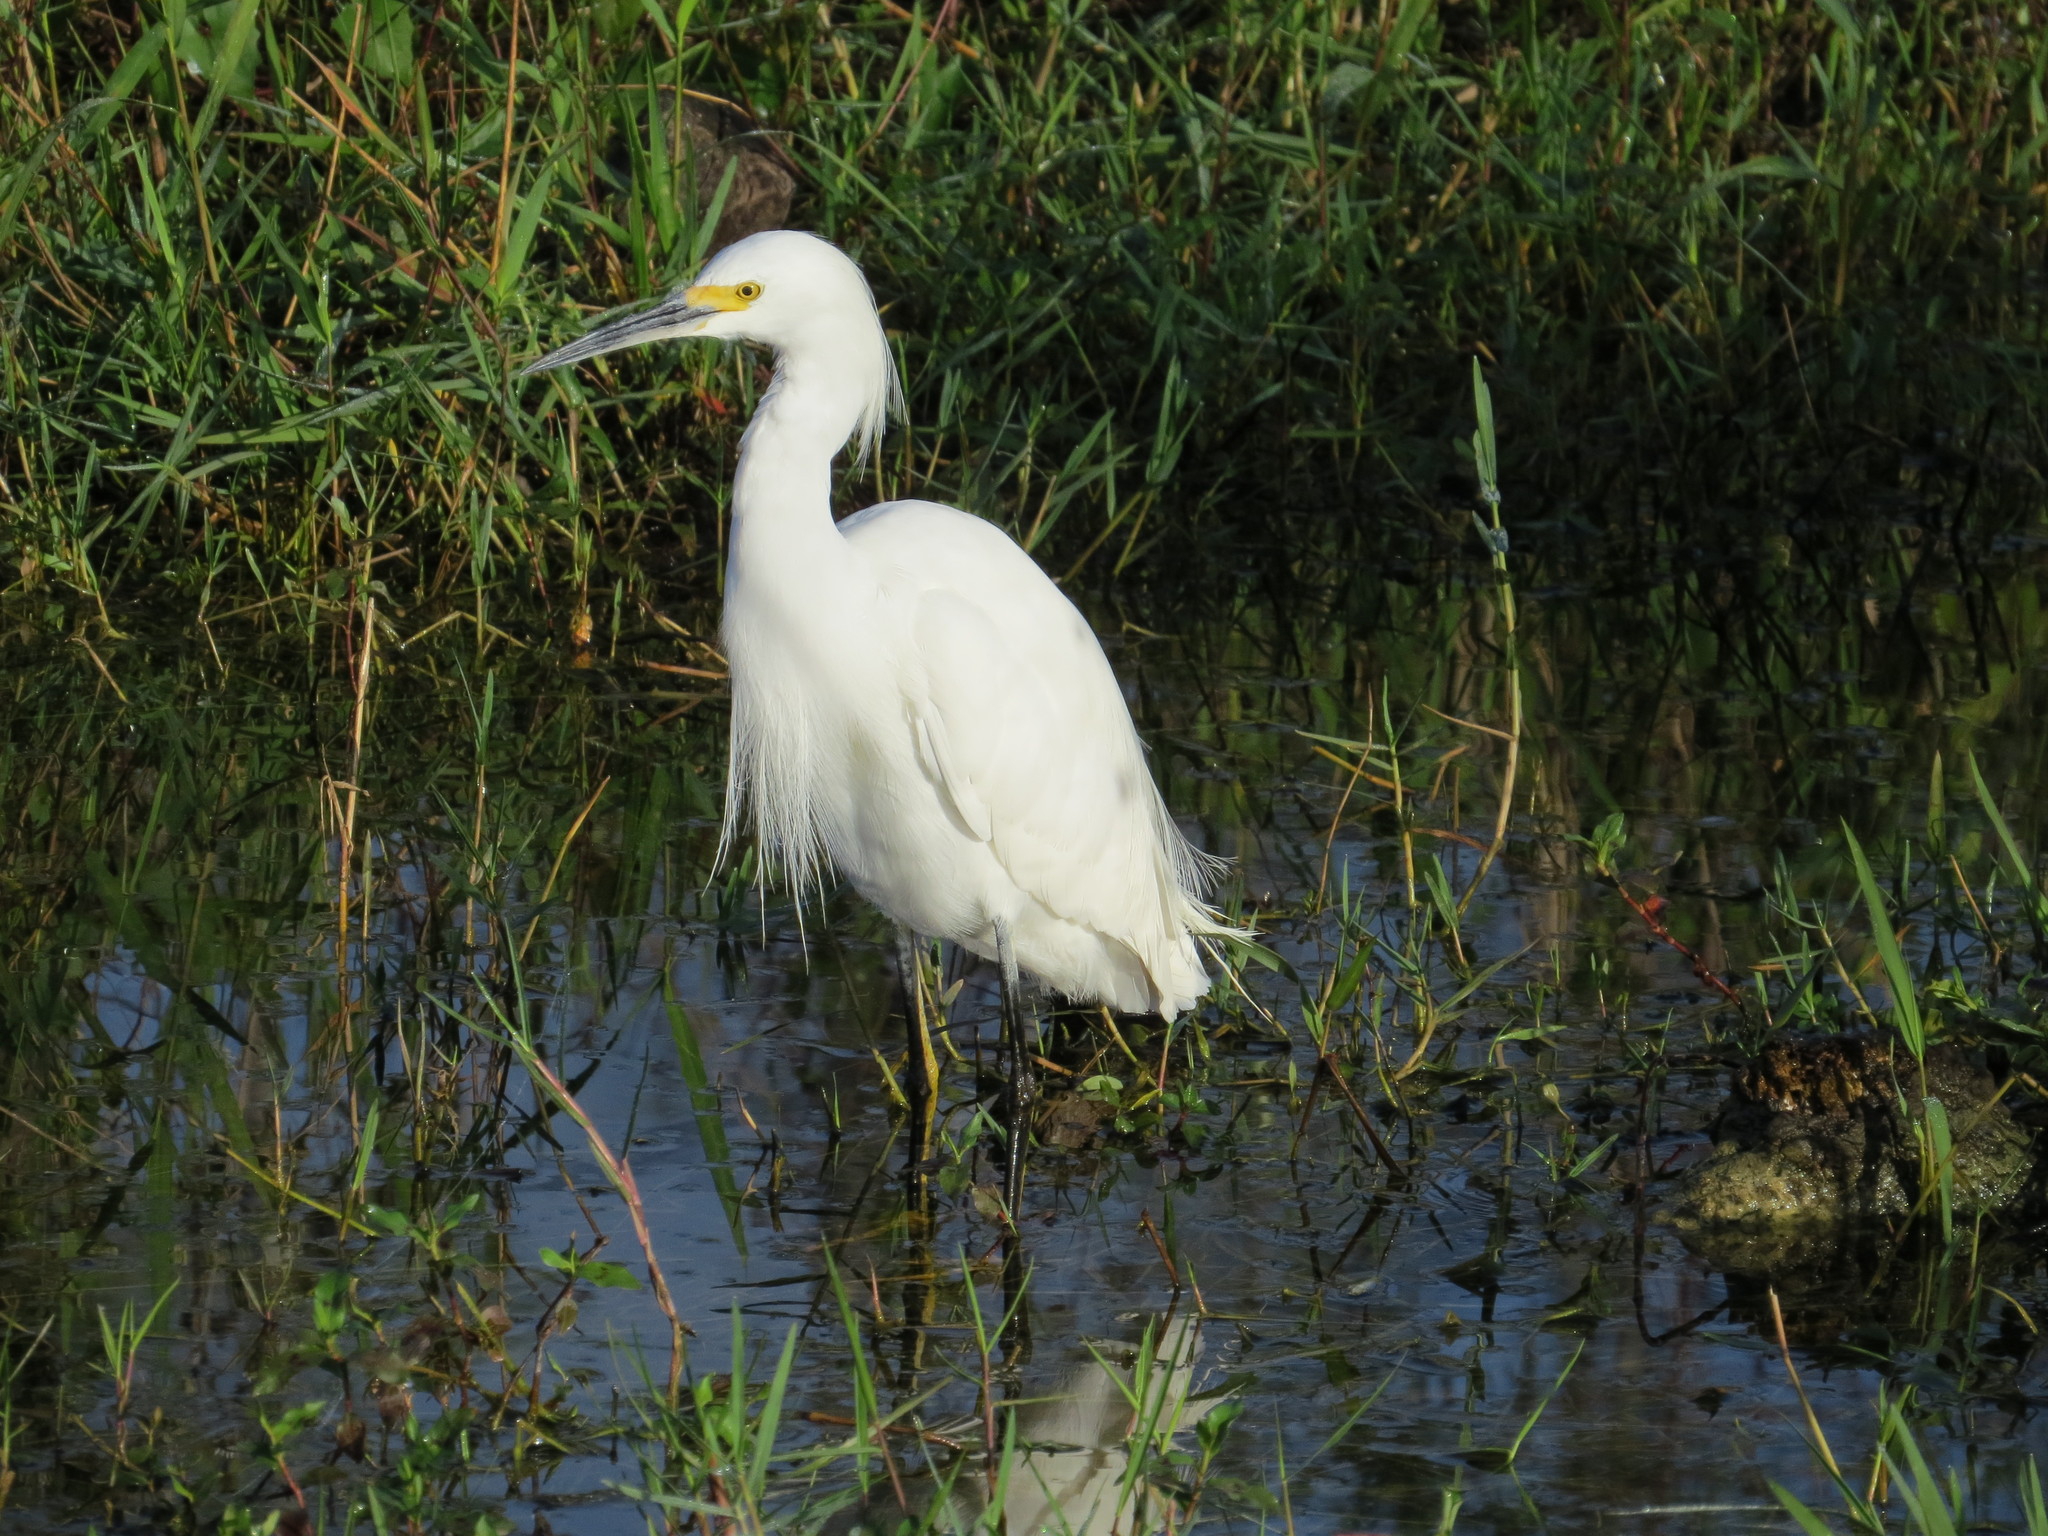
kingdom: Animalia
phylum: Chordata
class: Aves
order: Pelecaniformes
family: Ardeidae
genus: Egretta
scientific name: Egretta thula
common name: Snowy egret
